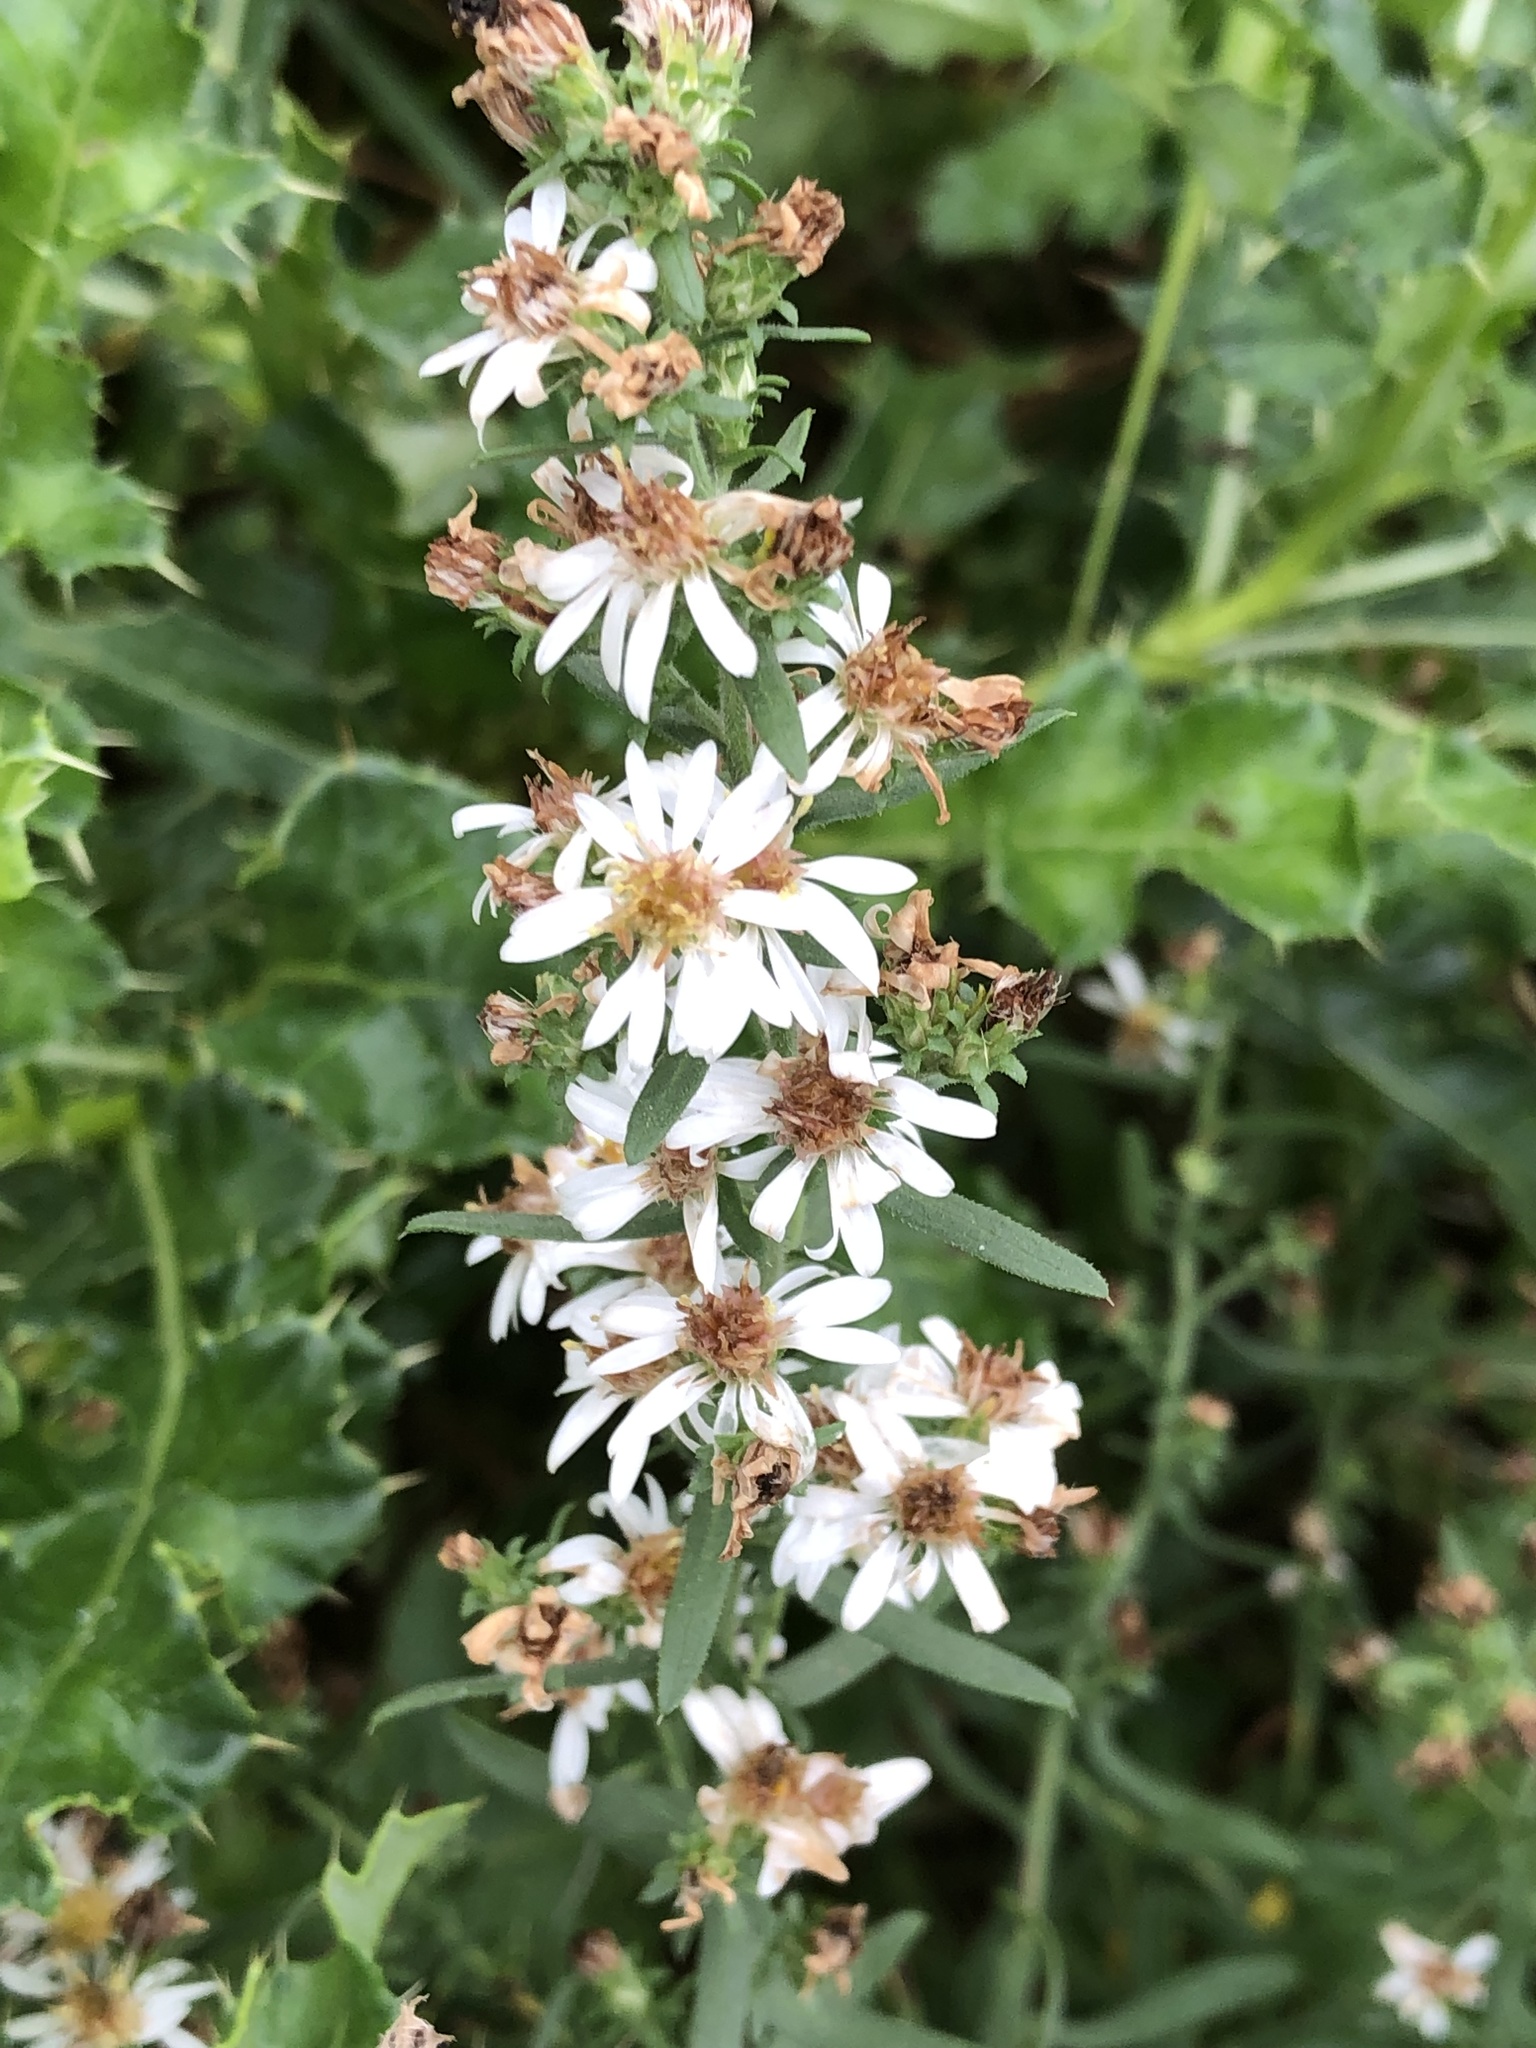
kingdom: Plantae
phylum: Tracheophyta
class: Magnoliopsida
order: Asterales
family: Asteraceae
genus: Symphyotrichum
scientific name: Symphyotrichum ericoides
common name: Heath aster
